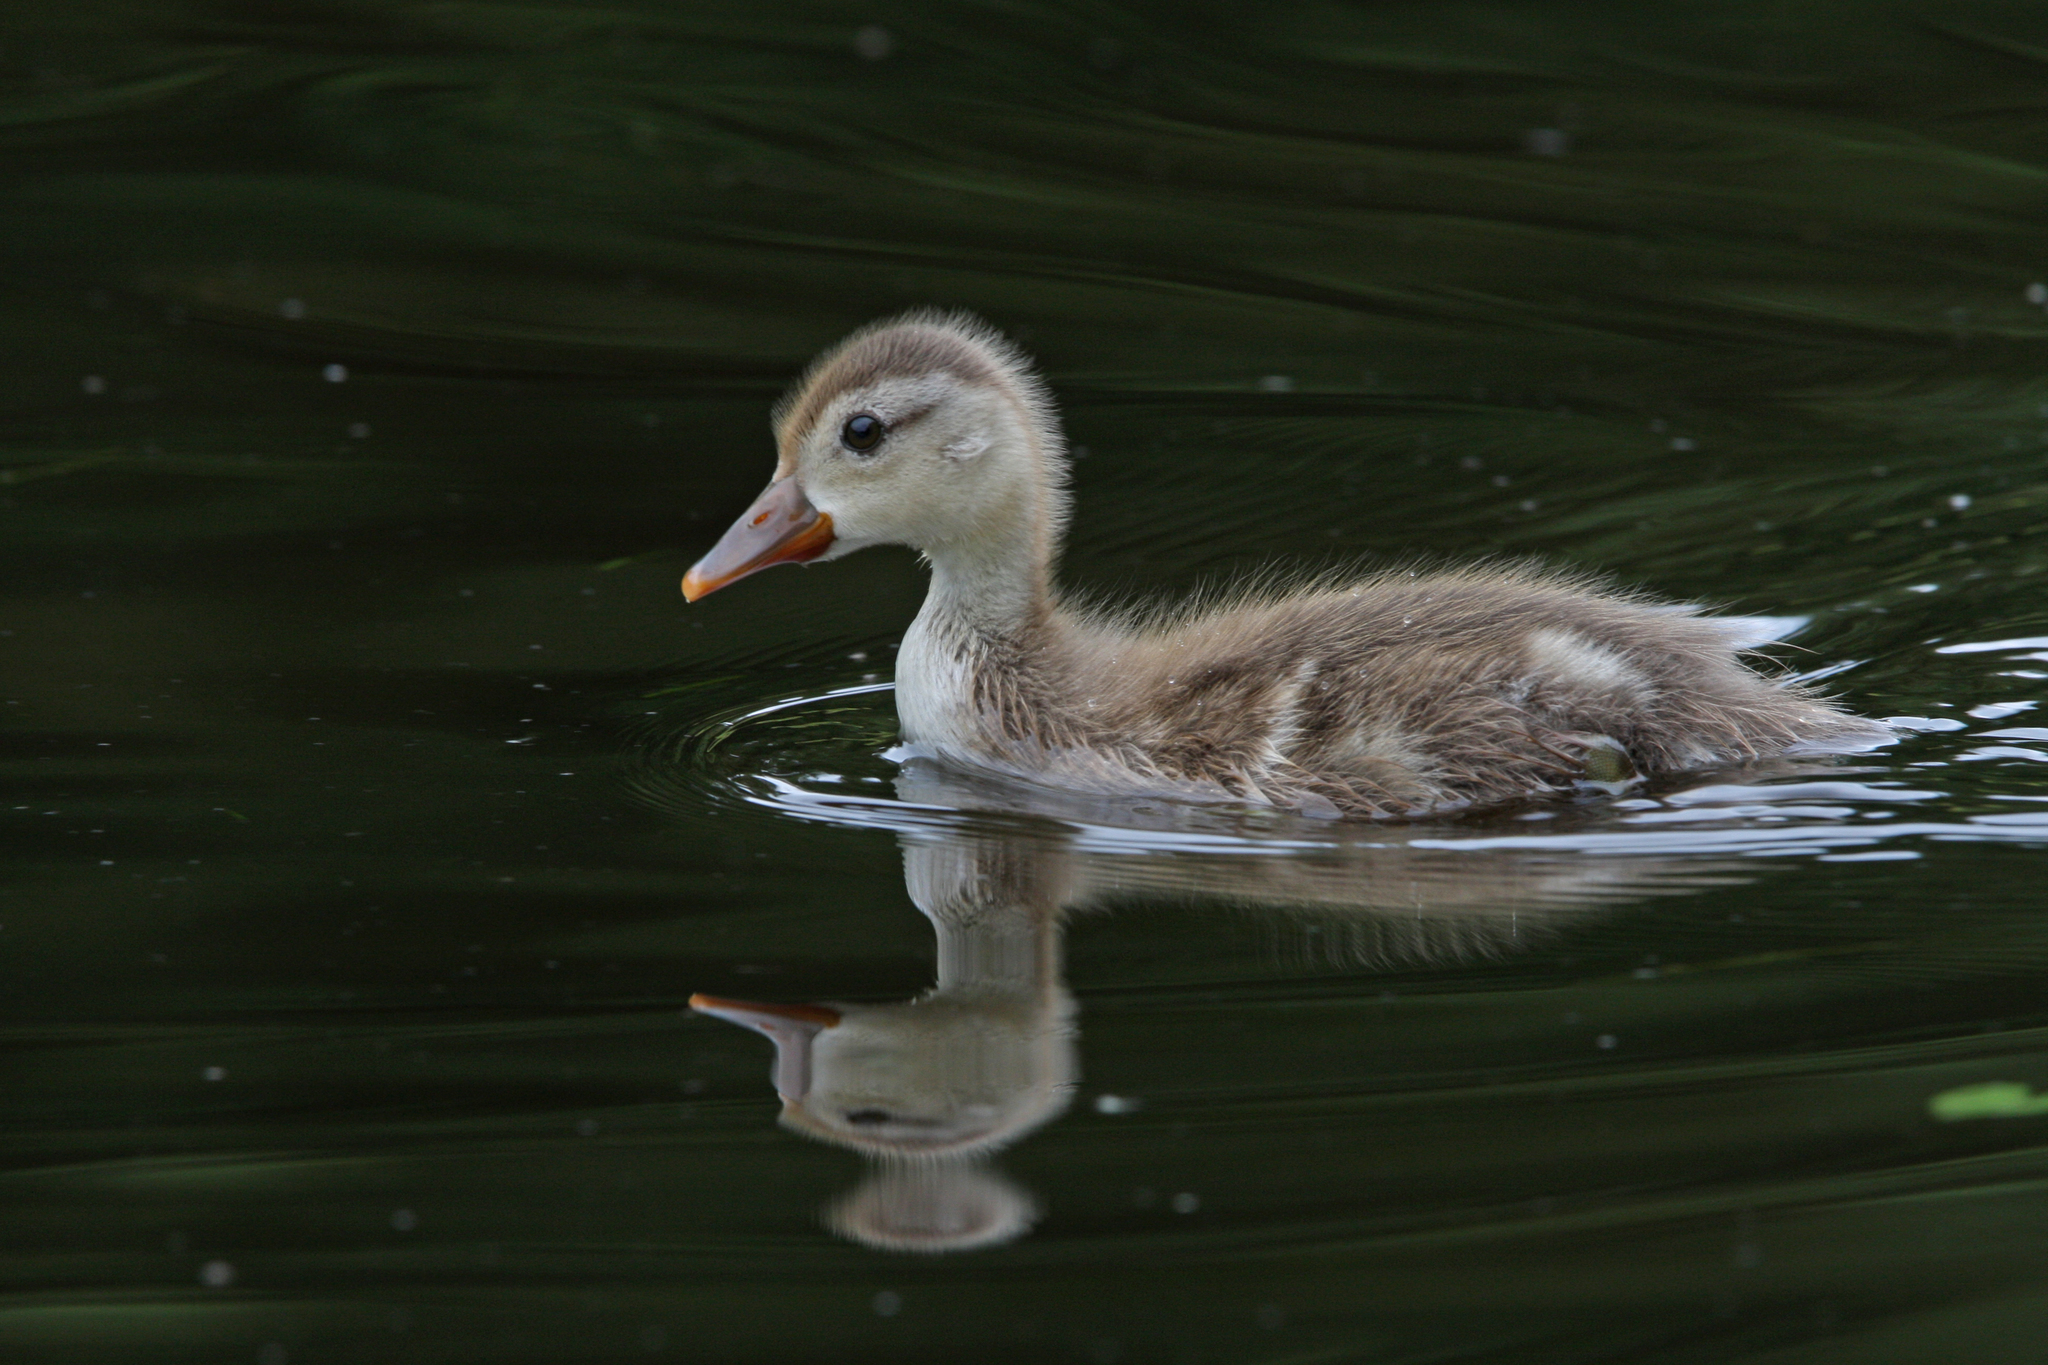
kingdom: Animalia
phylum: Chordata
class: Aves
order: Anseriformes
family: Anatidae
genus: Netta
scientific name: Netta rufina
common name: Red-crested pochard
